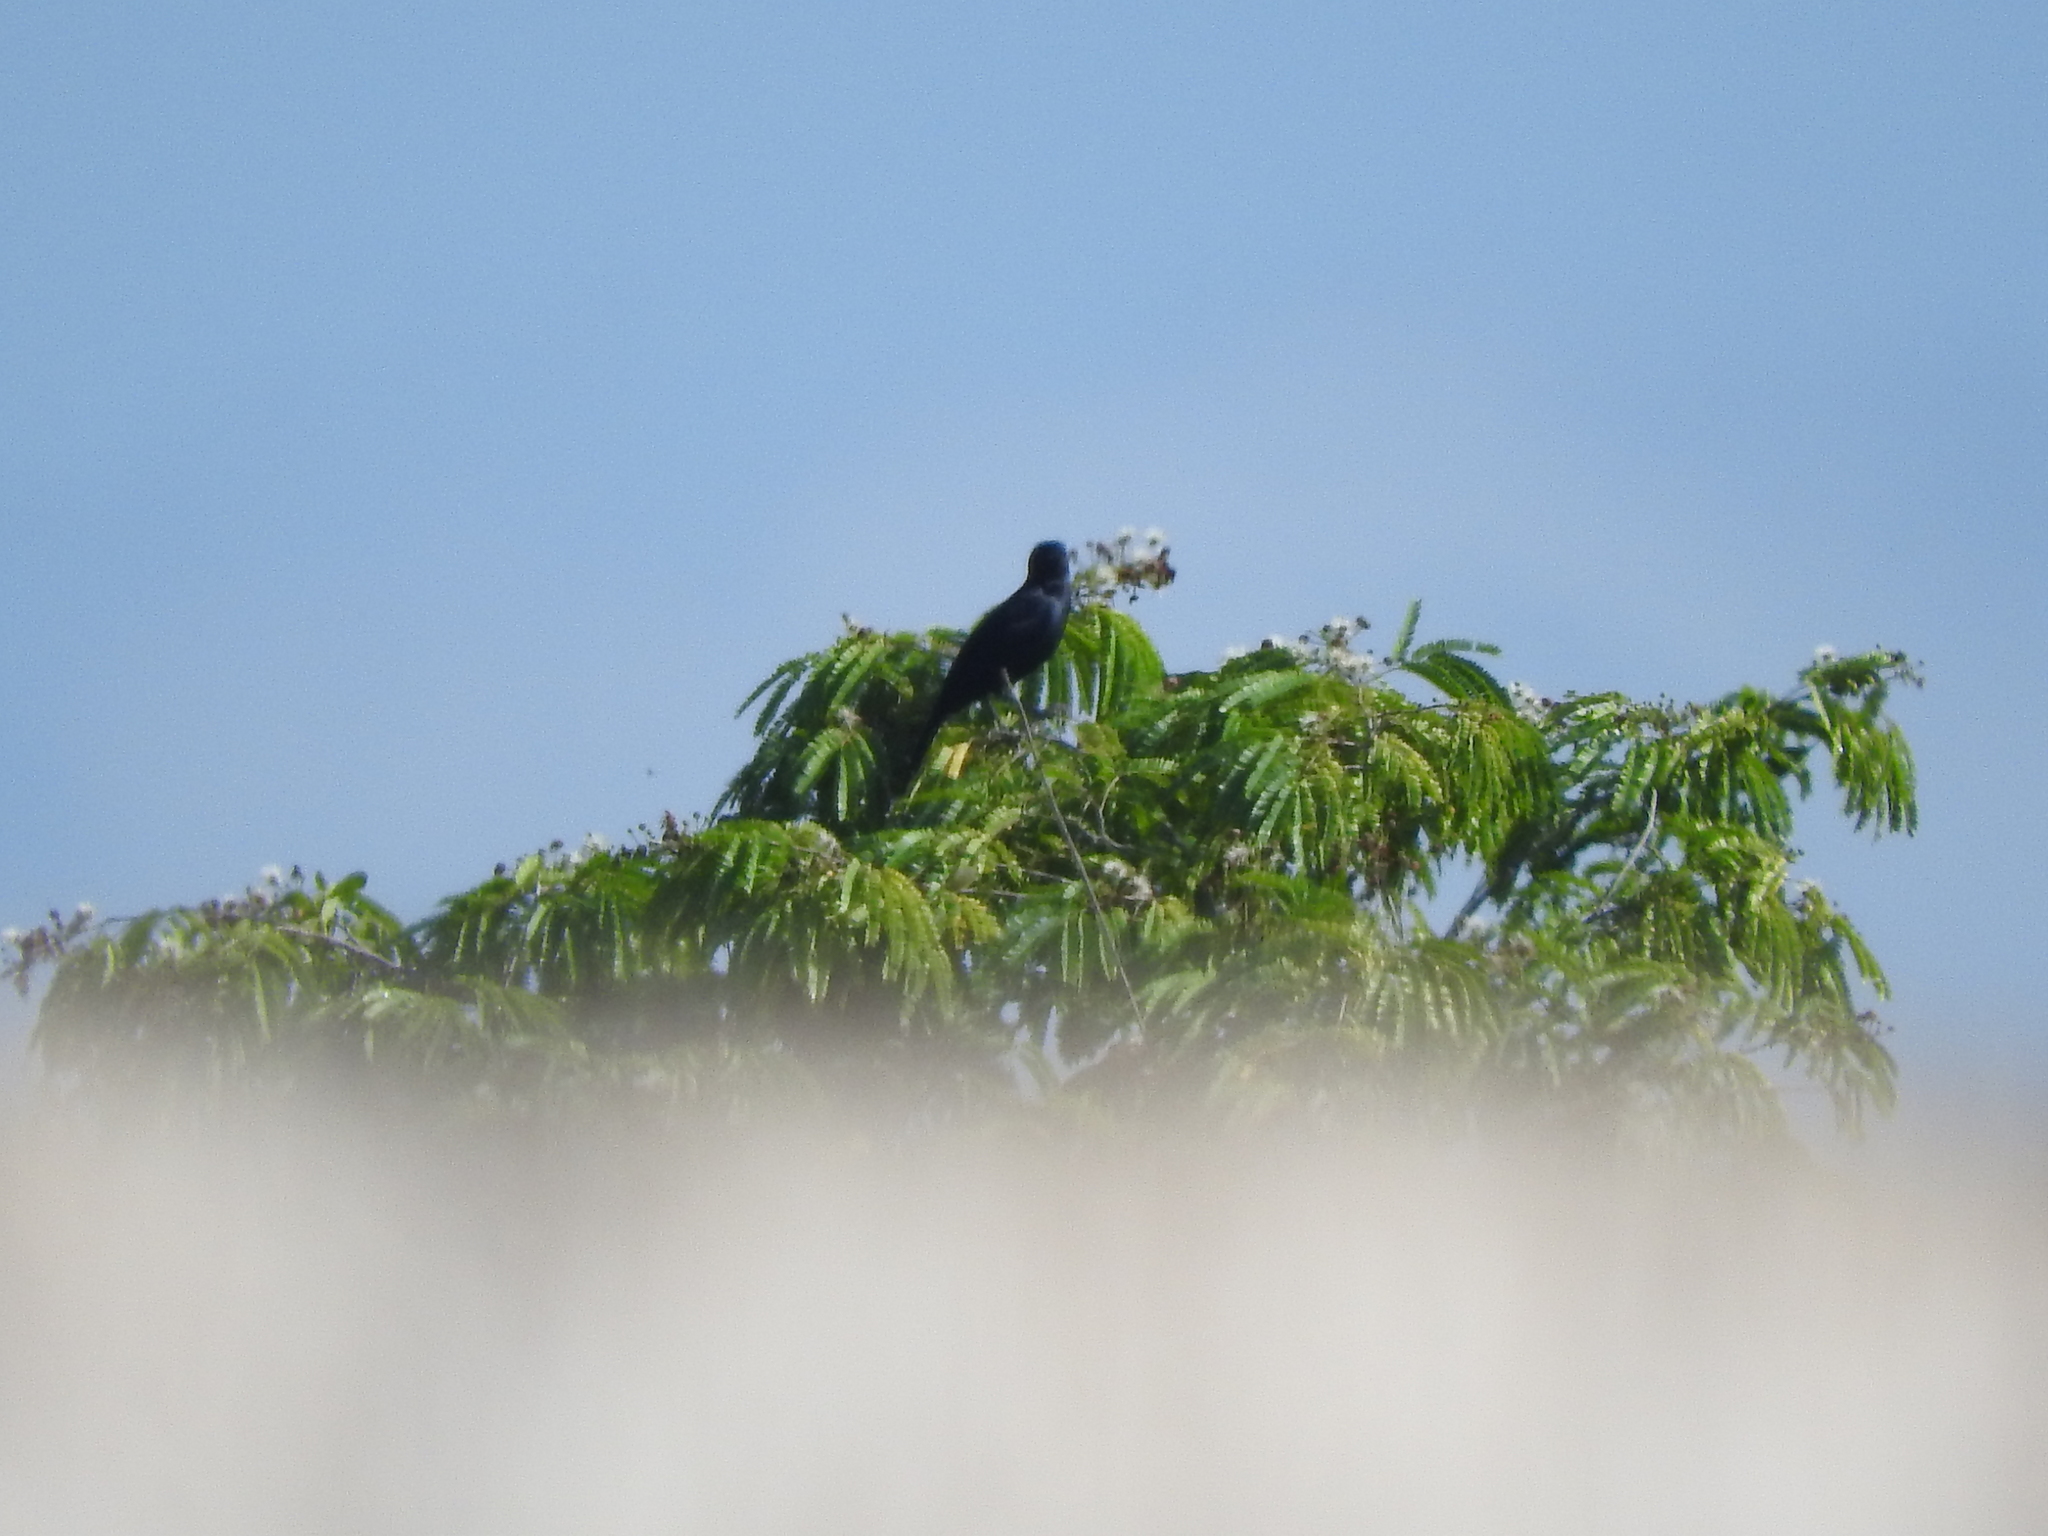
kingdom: Animalia
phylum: Chordata
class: Aves
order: Passeriformes
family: Icteridae
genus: Quiscalus
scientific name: Quiscalus mexicanus
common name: Great-tailed grackle
